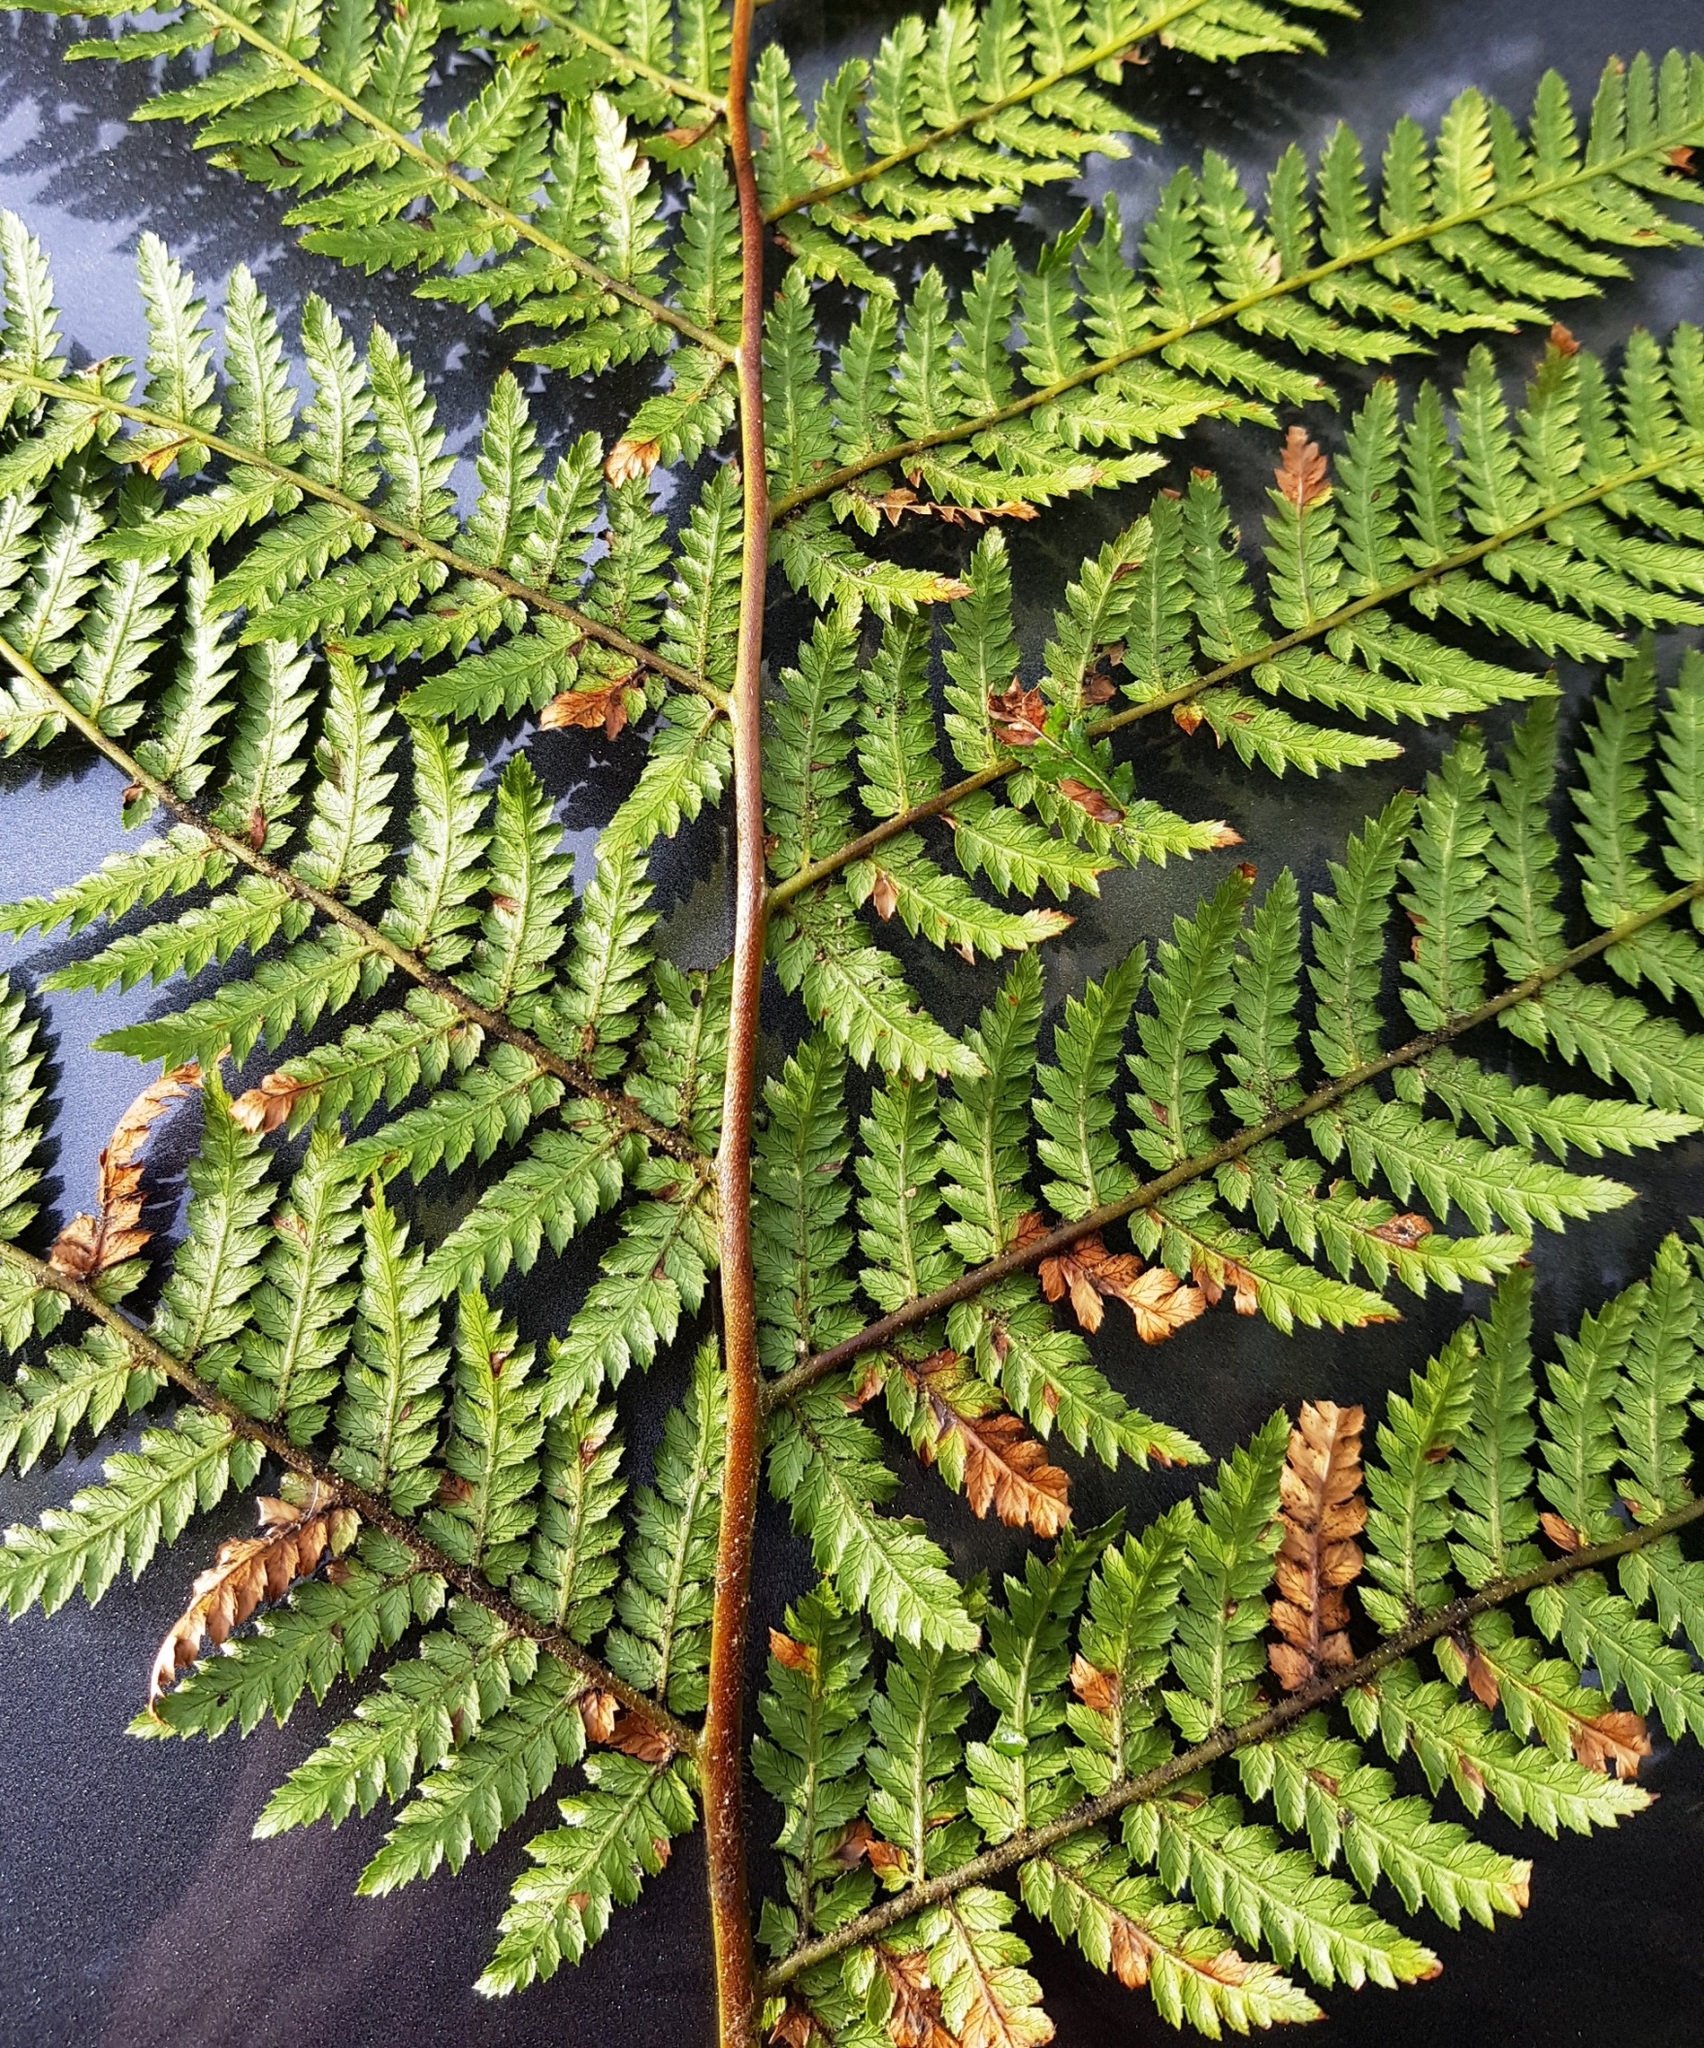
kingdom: Plantae
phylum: Tracheophyta
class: Polypodiopsida
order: Cyatheales
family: Dicksoniaceae
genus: Dicksonia
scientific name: Dicksonia fibrosa
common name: Golden tree fern
